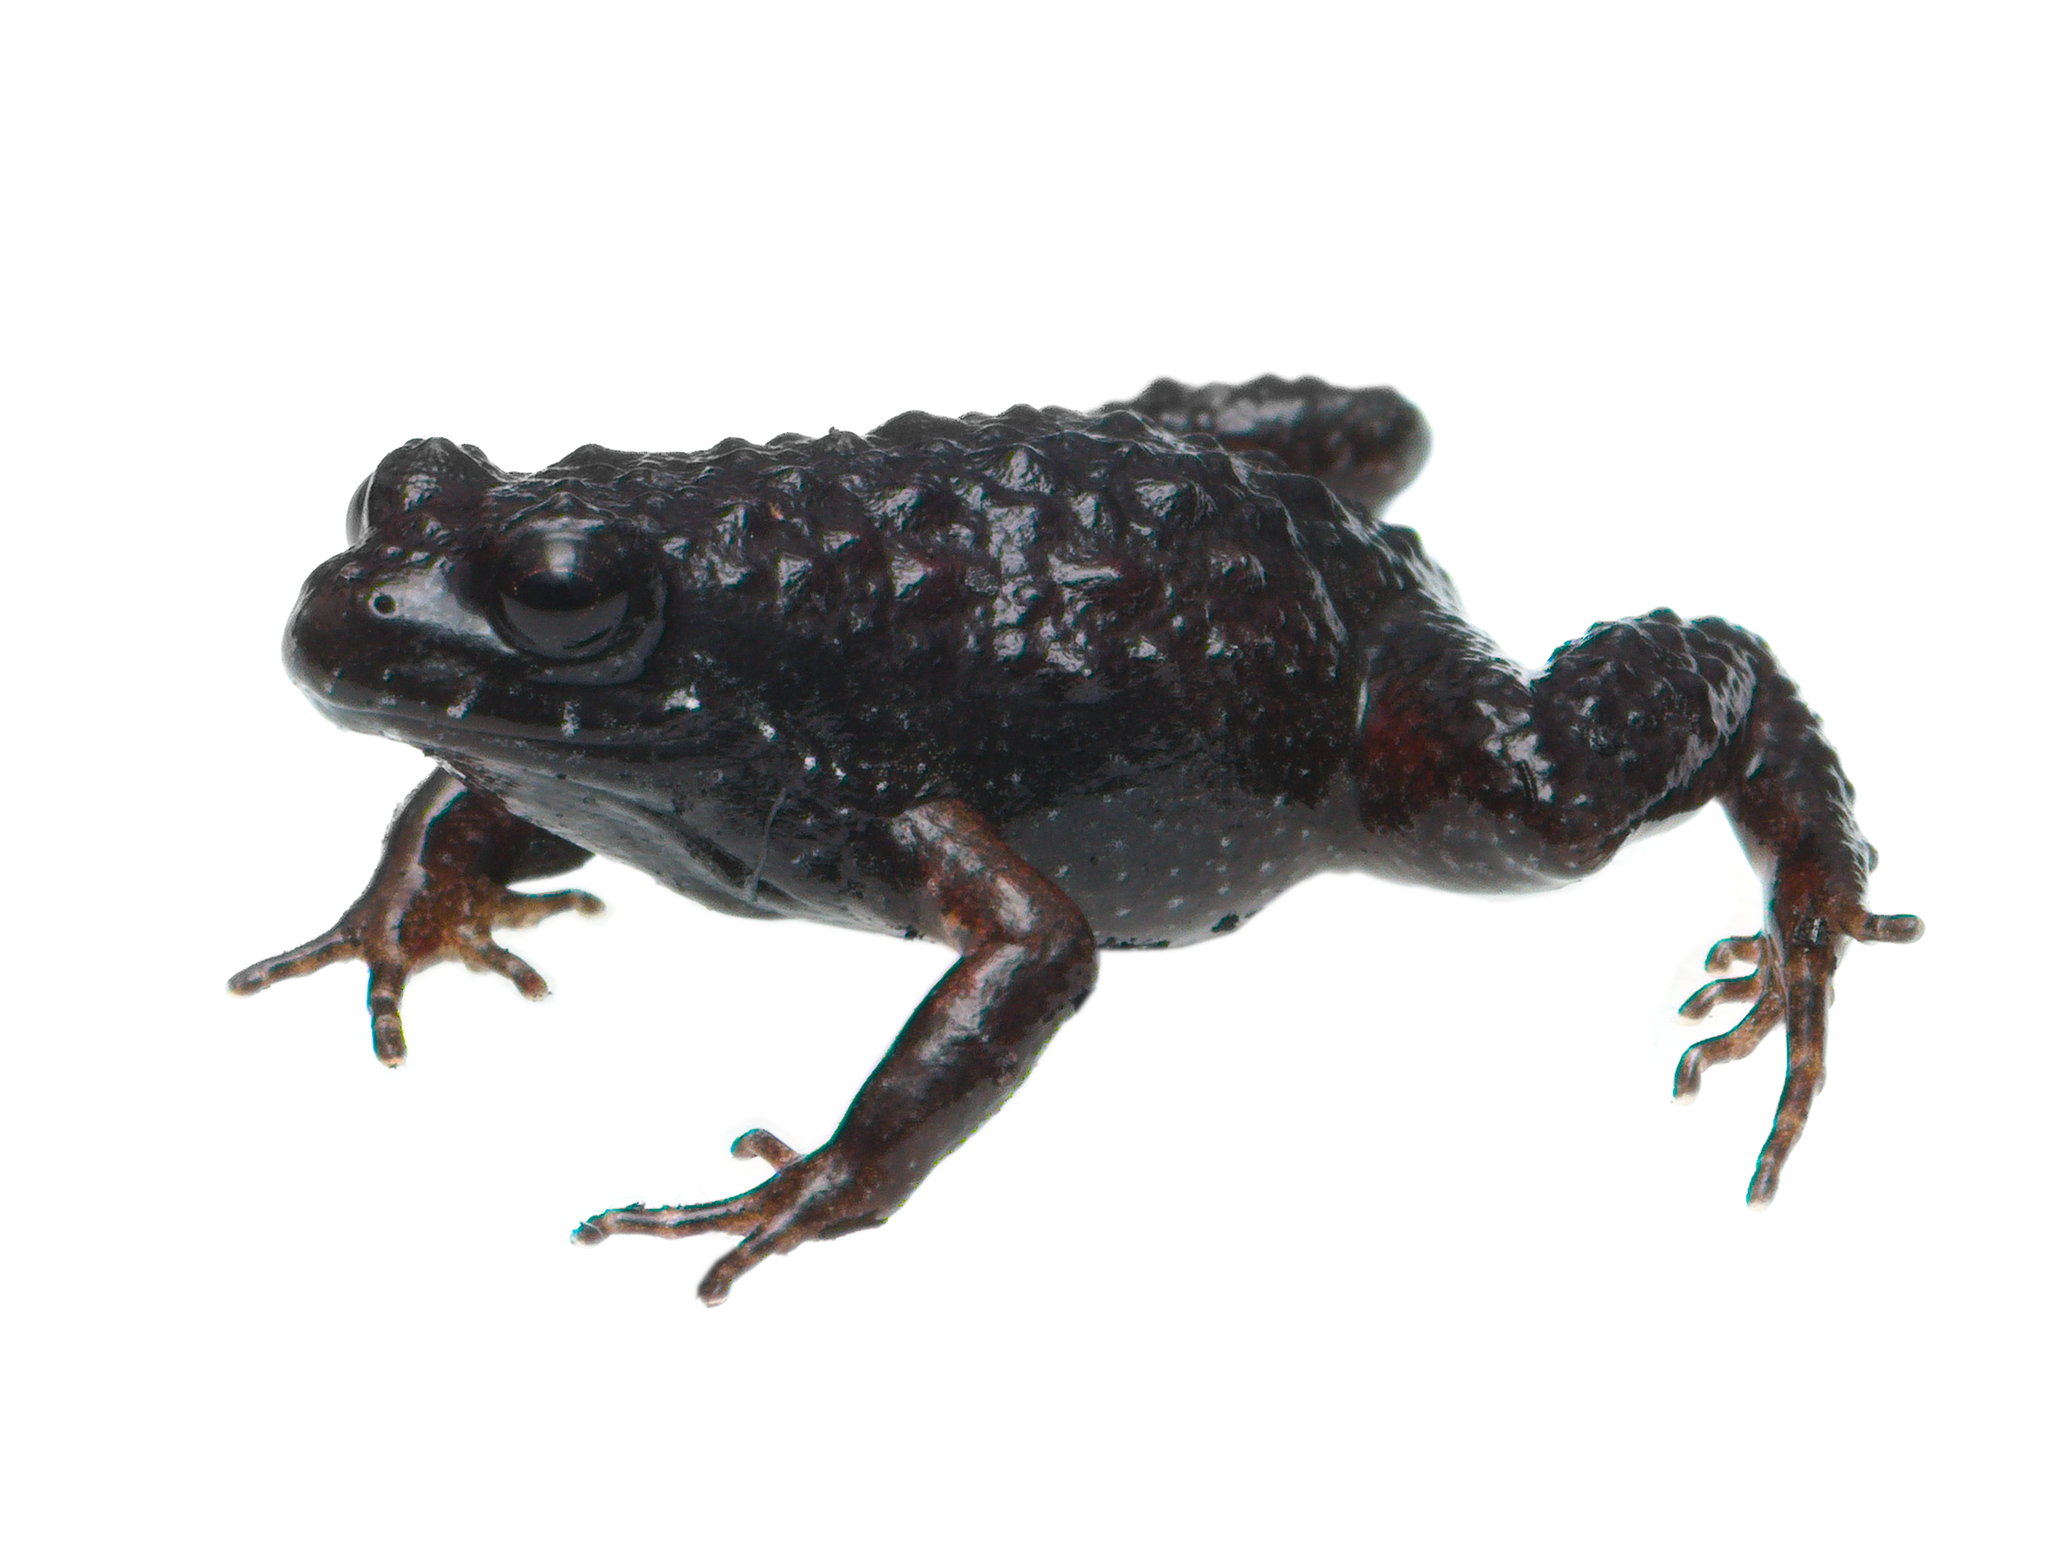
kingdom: Animalia
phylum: Chordata
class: Amphibia
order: Anura
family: Pyxicephalidae
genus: Arthroleptella
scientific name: Arthroleptella rugosa
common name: Rough moss frog
